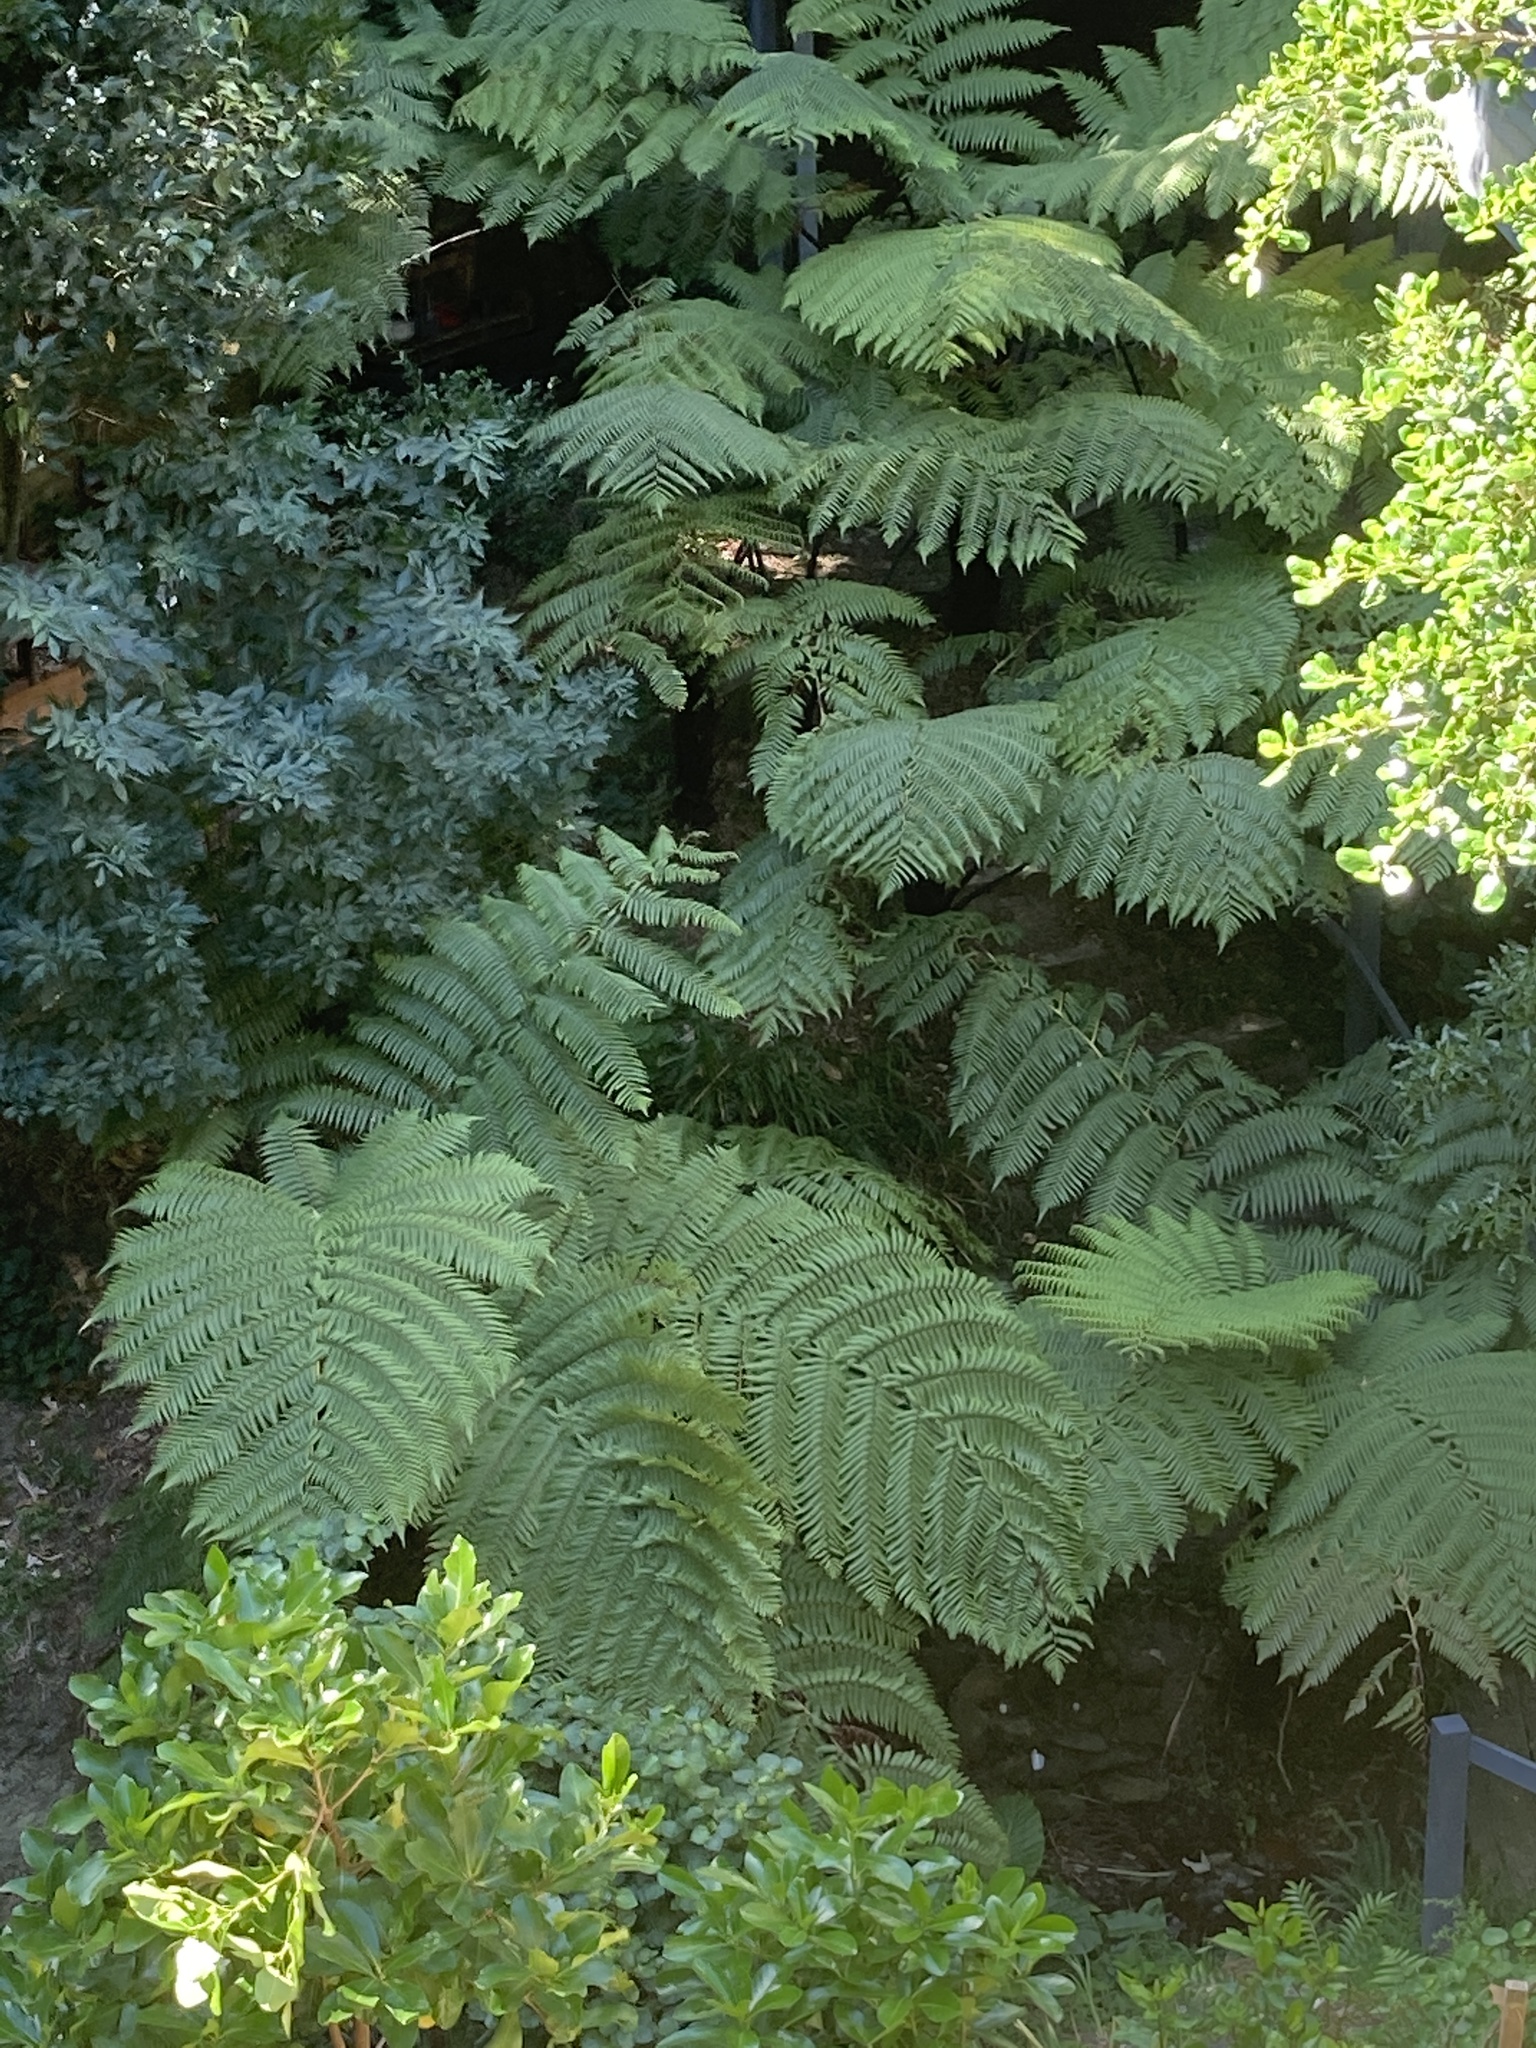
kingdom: Plantae
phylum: Tracheophyta
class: Polypodiopsida
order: Cyatheales
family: Cyatheaceae
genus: Sphaeropteris
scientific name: Sphaeropteris medullaris
